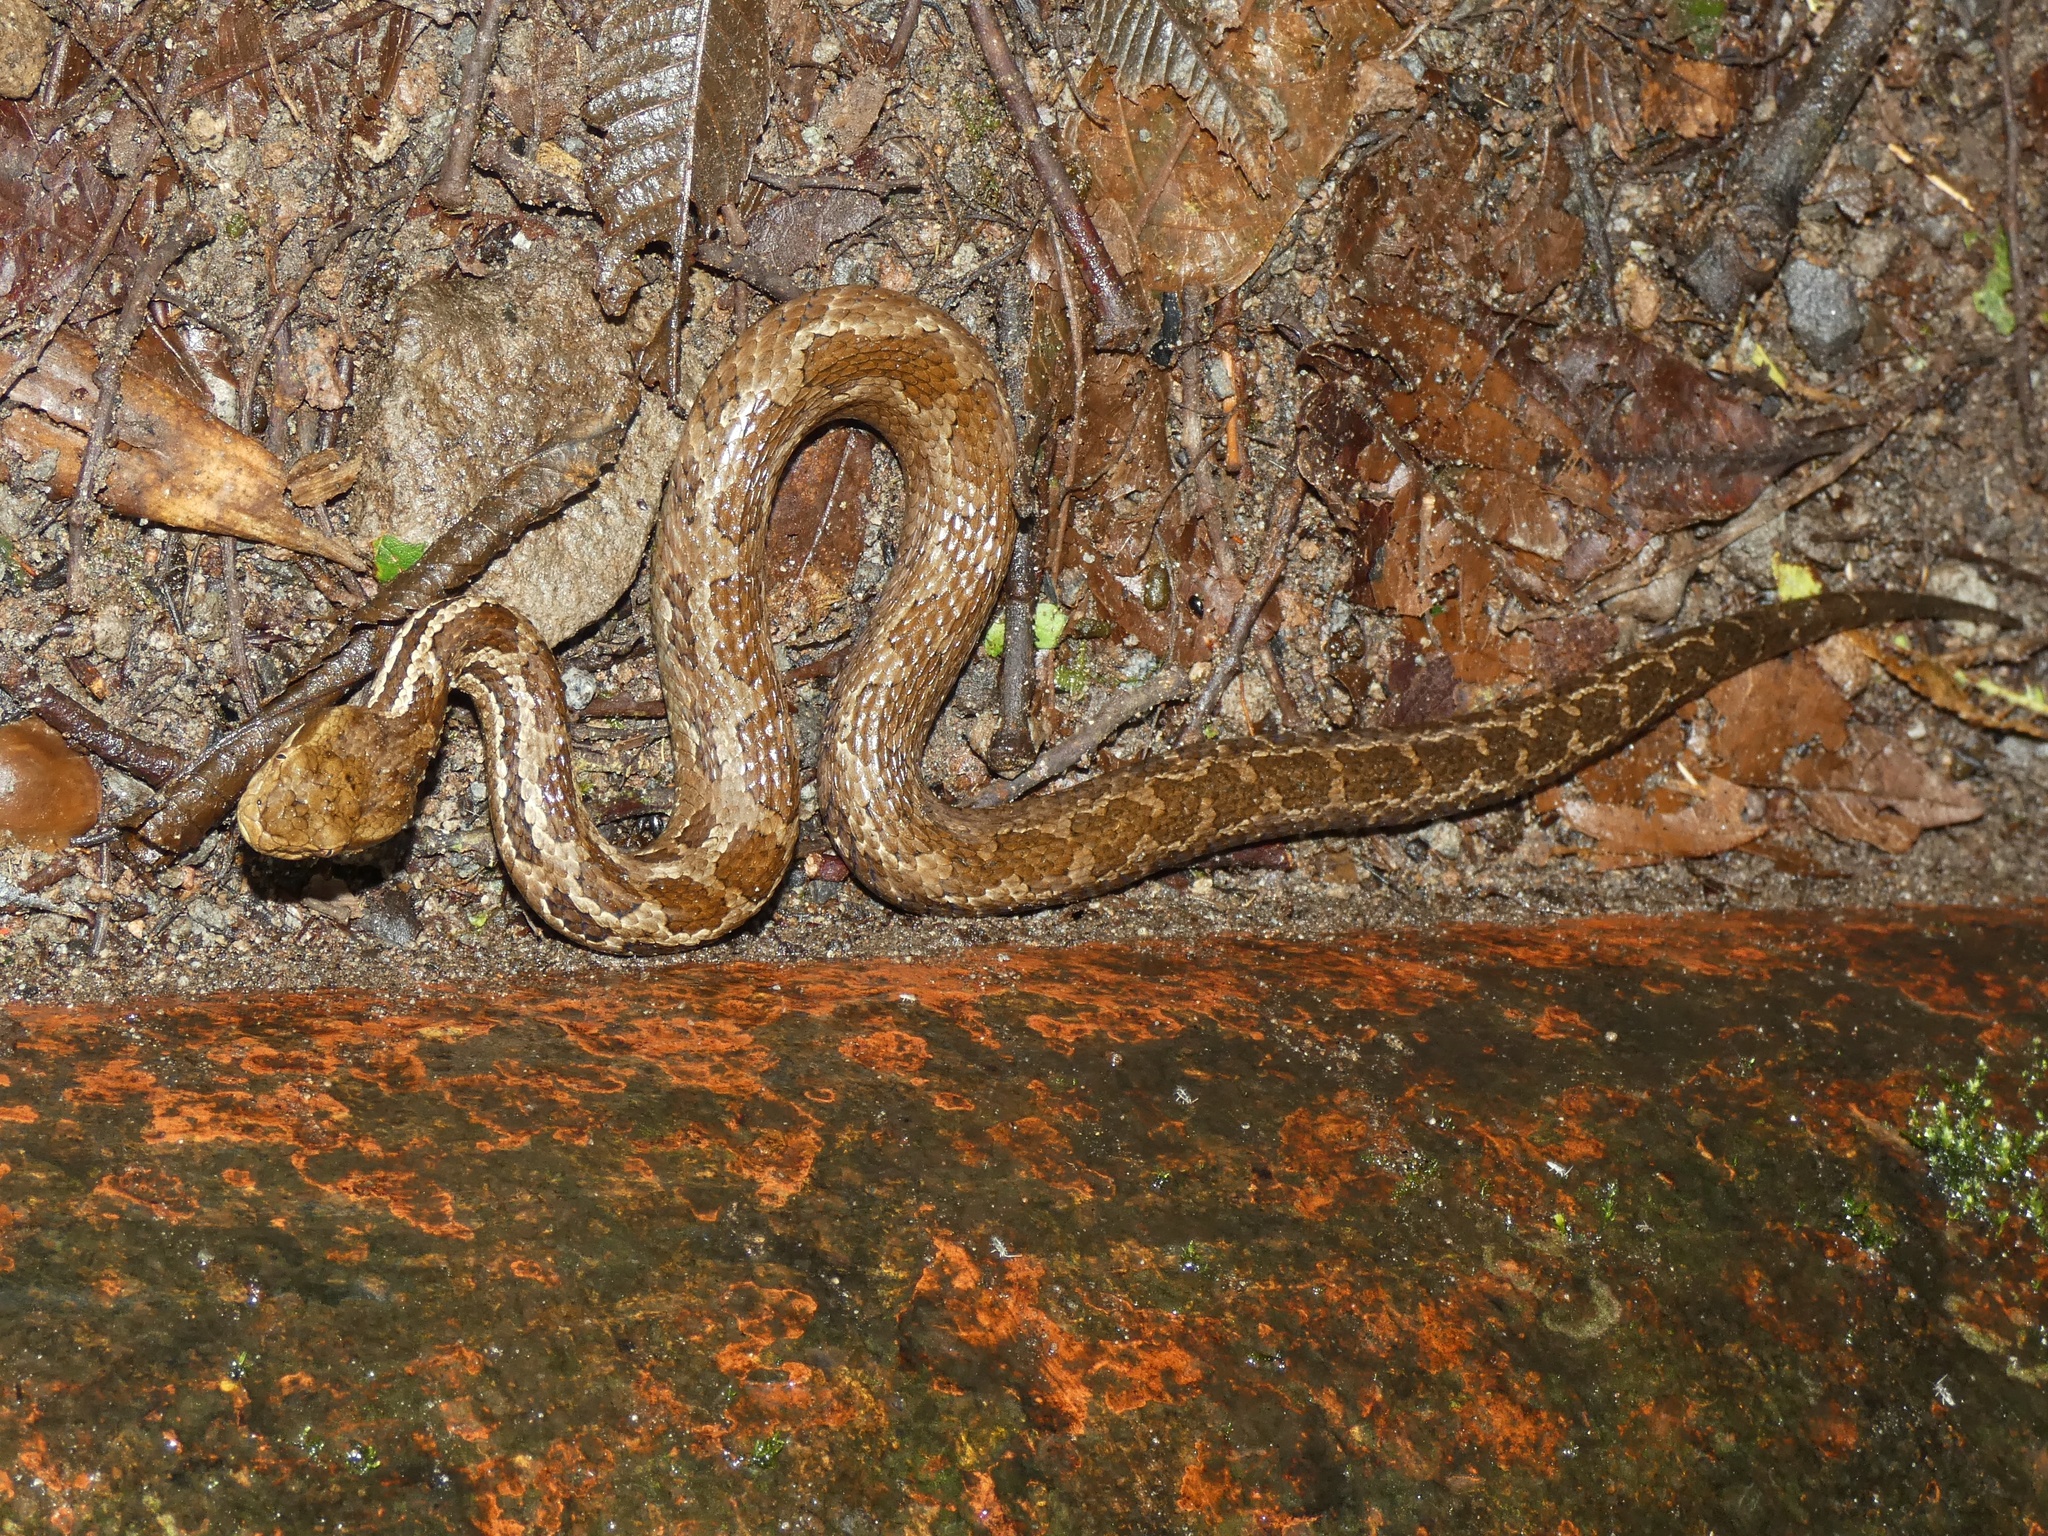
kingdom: Animalia
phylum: Chordata
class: Squamata
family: Viperidae
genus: Cerrophidion
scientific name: Cerrophidion sasai
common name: Costa rica montane pitviper
